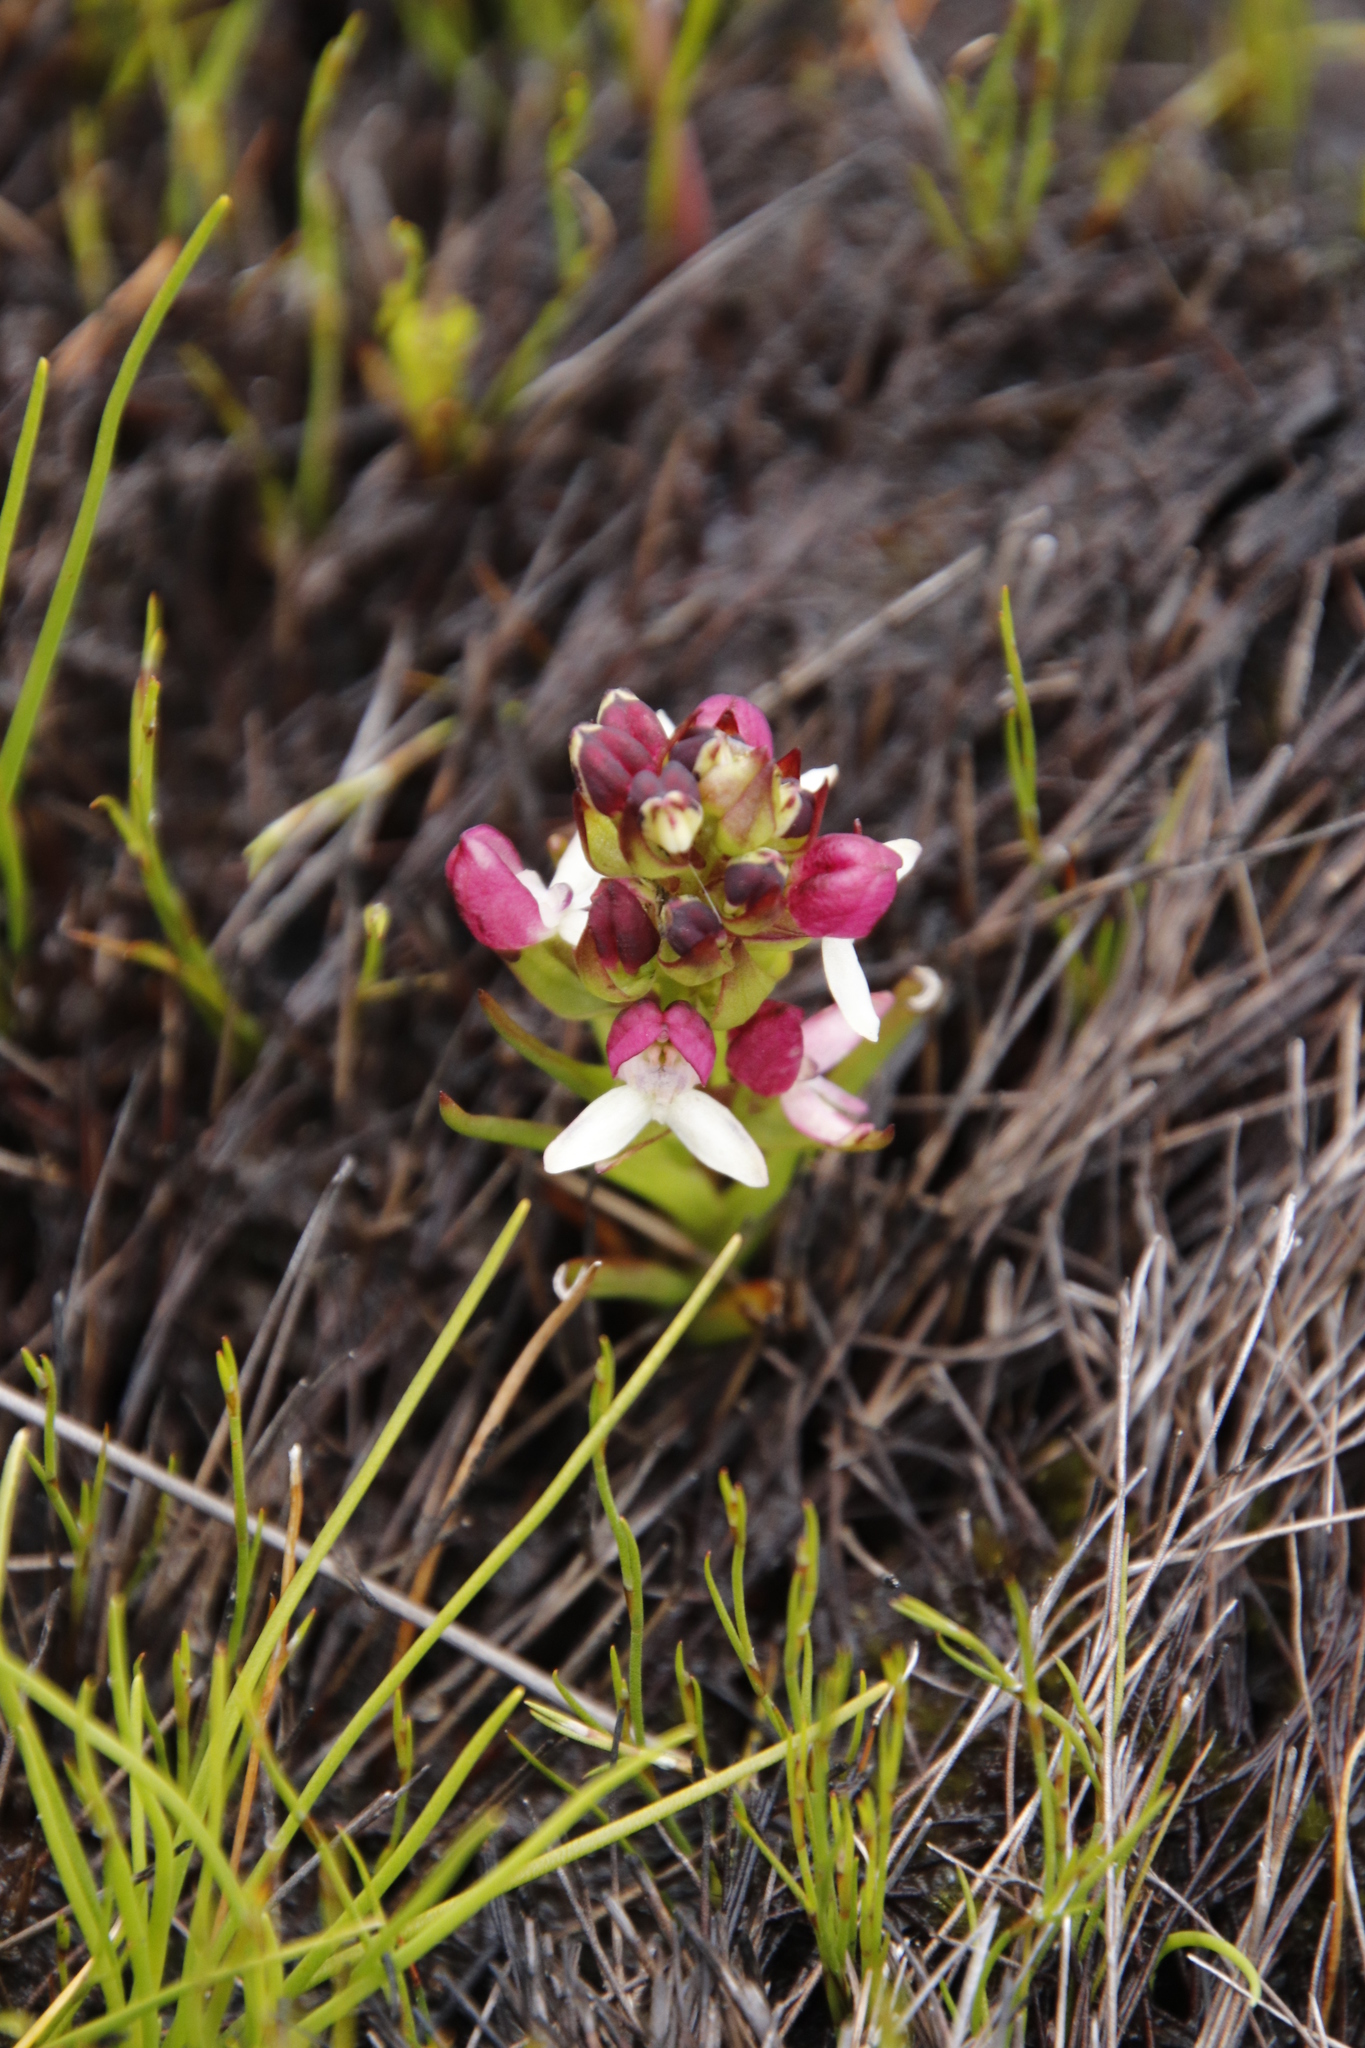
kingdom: Plantae
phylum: Tracheophyta
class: Liliopsida
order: Asparagales
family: Orchidaceae
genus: Disa
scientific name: Disa albomagentea
